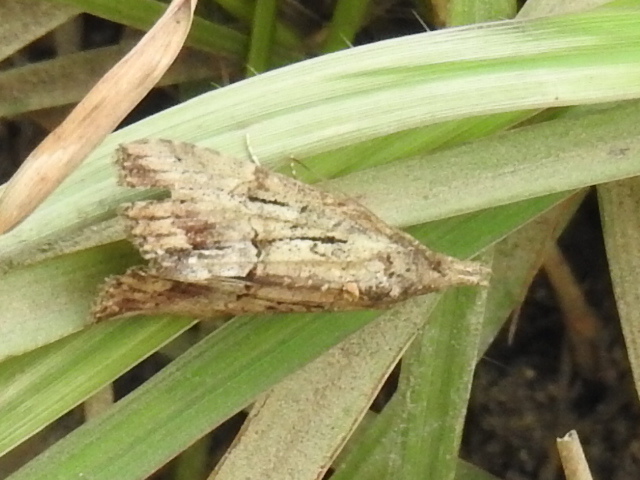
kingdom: Animalia
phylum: Arthropoda
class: Insecta
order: Lepidoptera
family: Erebidae
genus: Hypena
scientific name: Hypena scabra
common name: Green cloverworm
